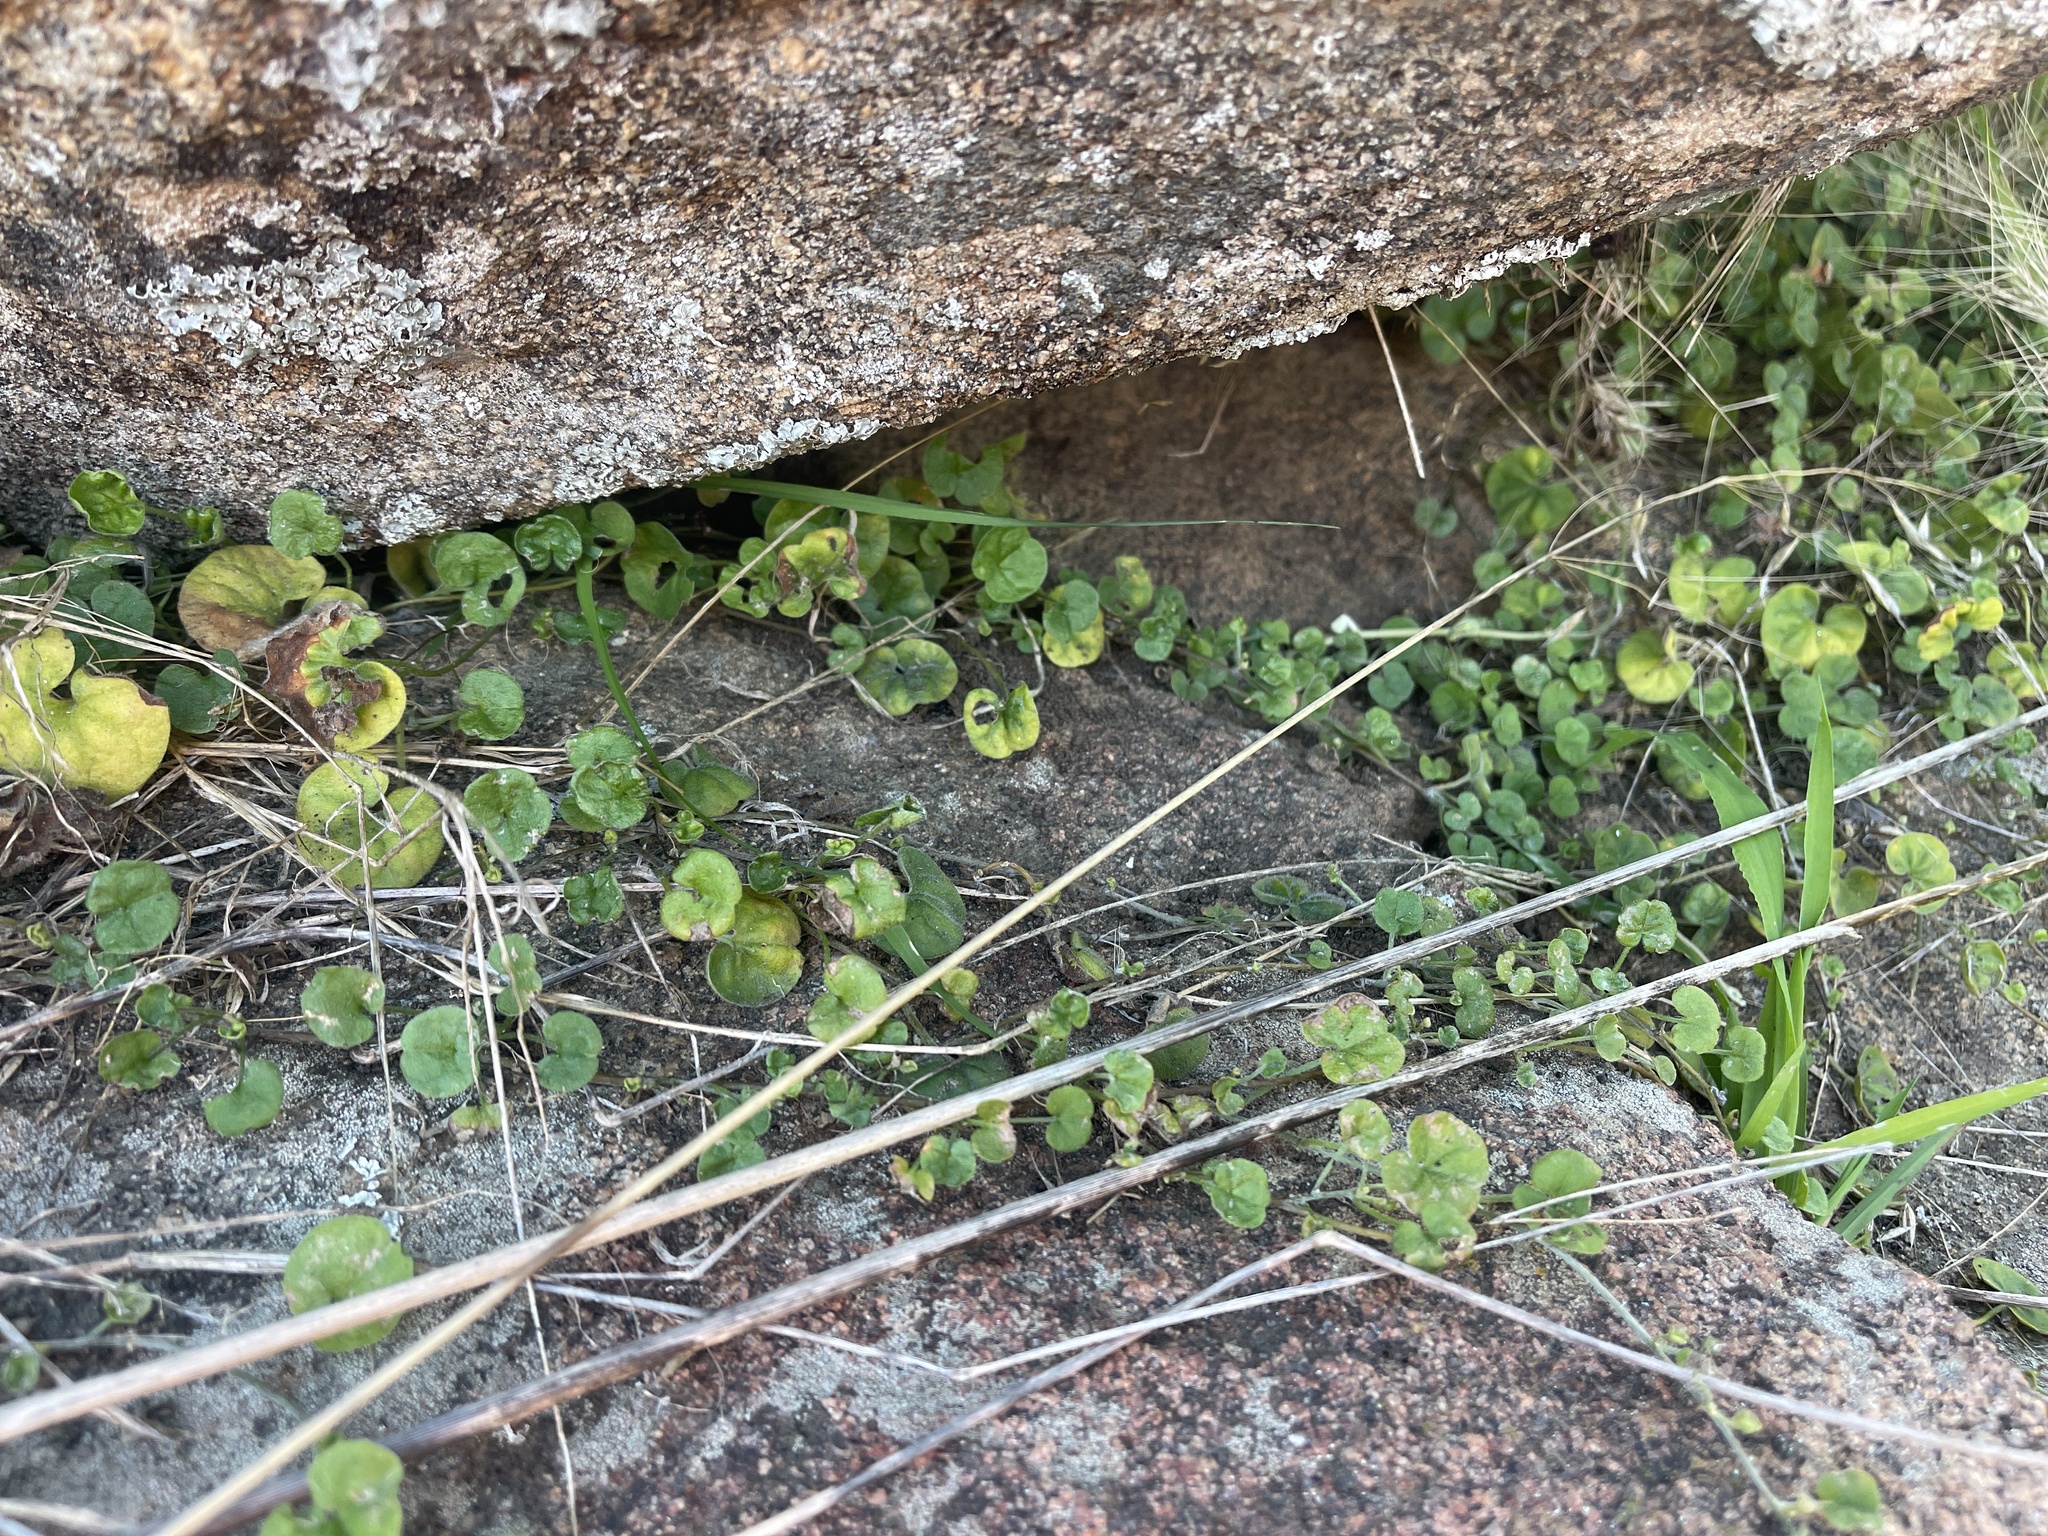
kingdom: Plantae
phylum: Tracheophyta
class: Magnoliopsida
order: Solanales
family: Convolvulaceae
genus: Dichondra
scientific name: Dichondra repens
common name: Kidneyweed
